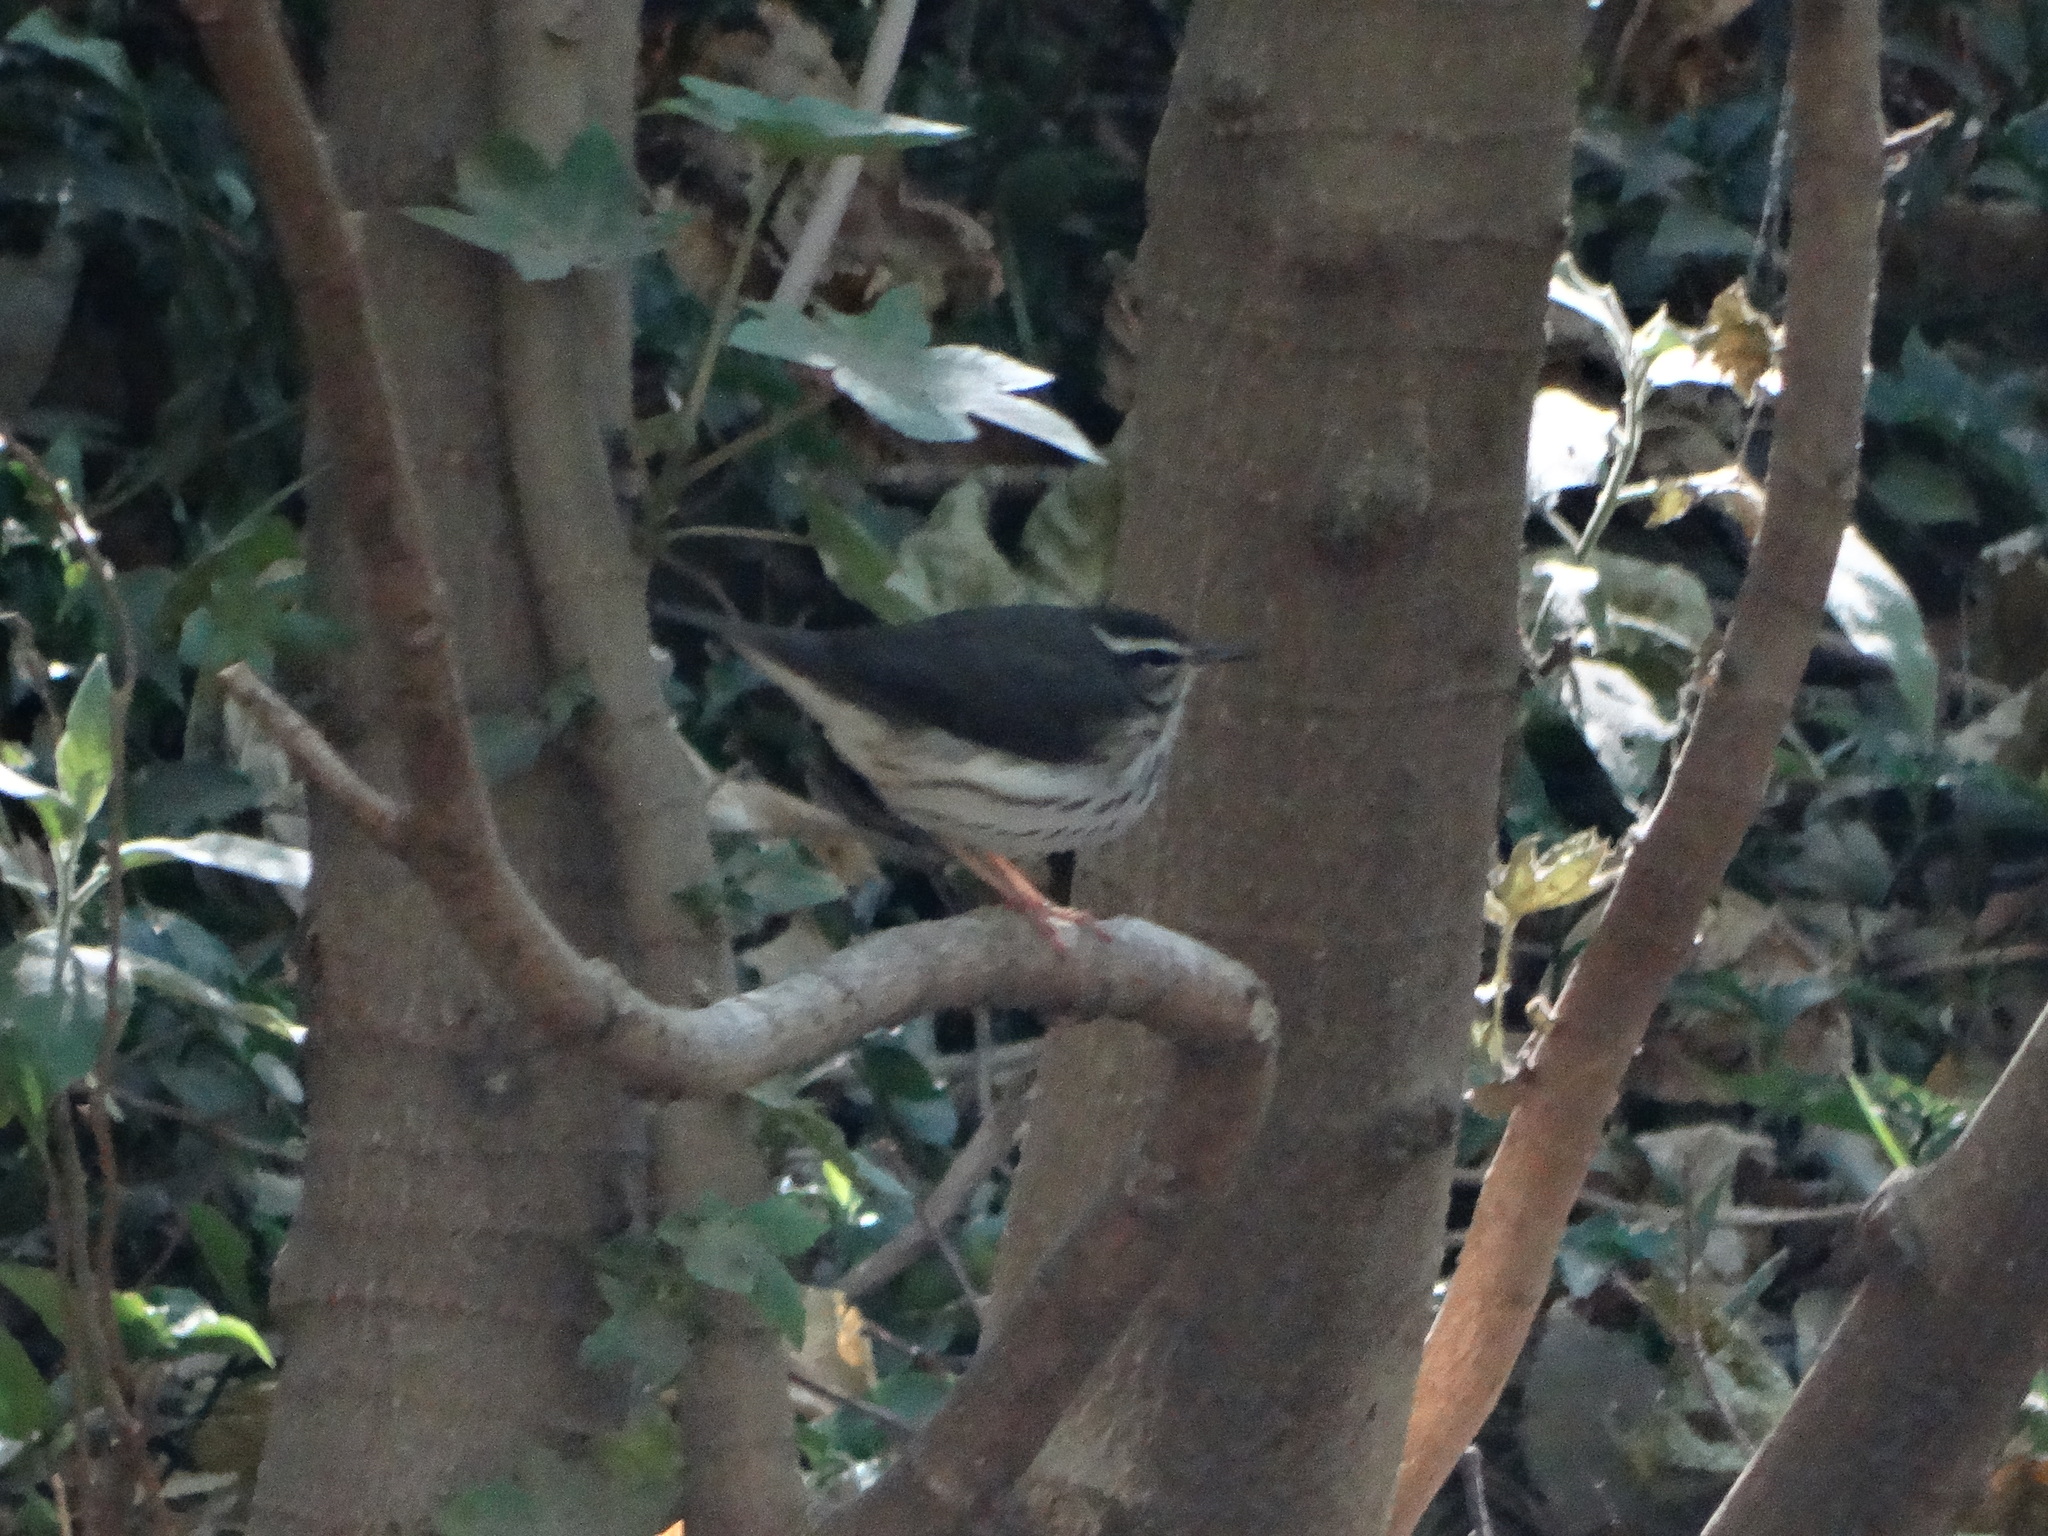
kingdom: Animalia
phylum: Chordata
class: Aves
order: Passeriformes
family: Parulidae
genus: Parkesia
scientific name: Parkesia motacilla
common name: Louisiana waterthrush
